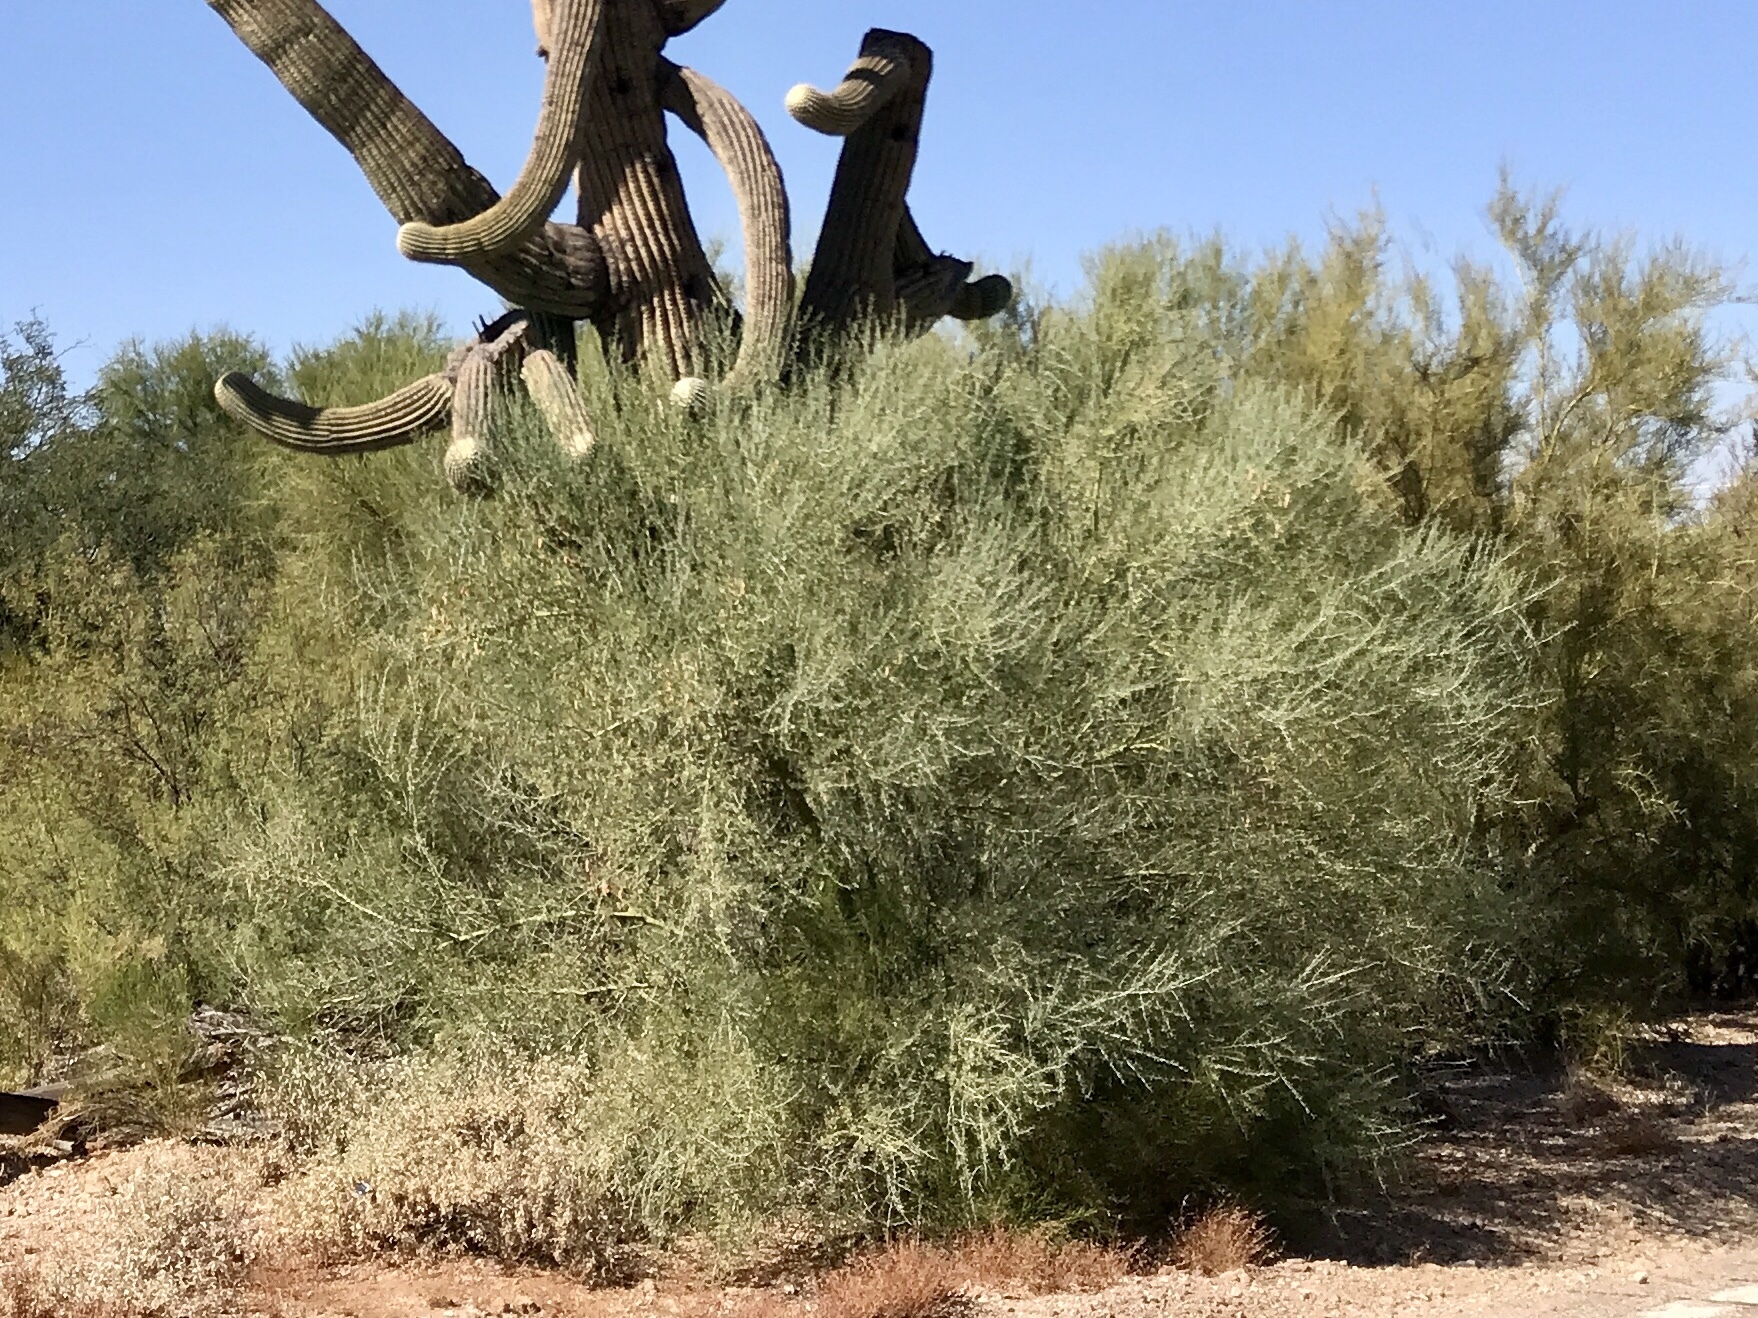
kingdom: Plantae
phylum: Tracheophyta
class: Magnoliopsida
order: Fabales
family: Fabaceae
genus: Parkinsonia
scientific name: Parkinsonia florida
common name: Blue paloverde
